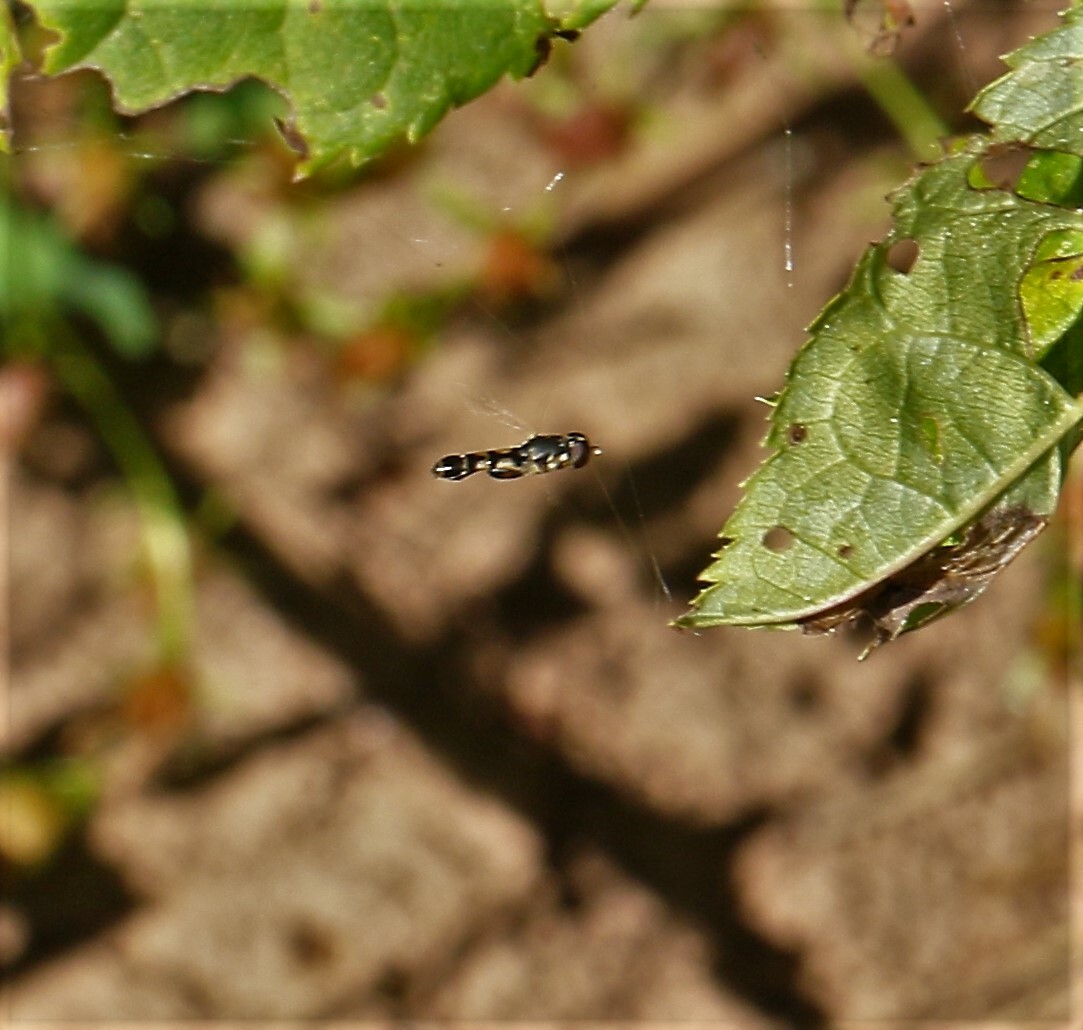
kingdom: Animalia
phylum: Arthropoda
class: Insecta
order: Diptera
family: Syrphidae
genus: Syritta
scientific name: Syritta pipiens
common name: Hover fly
